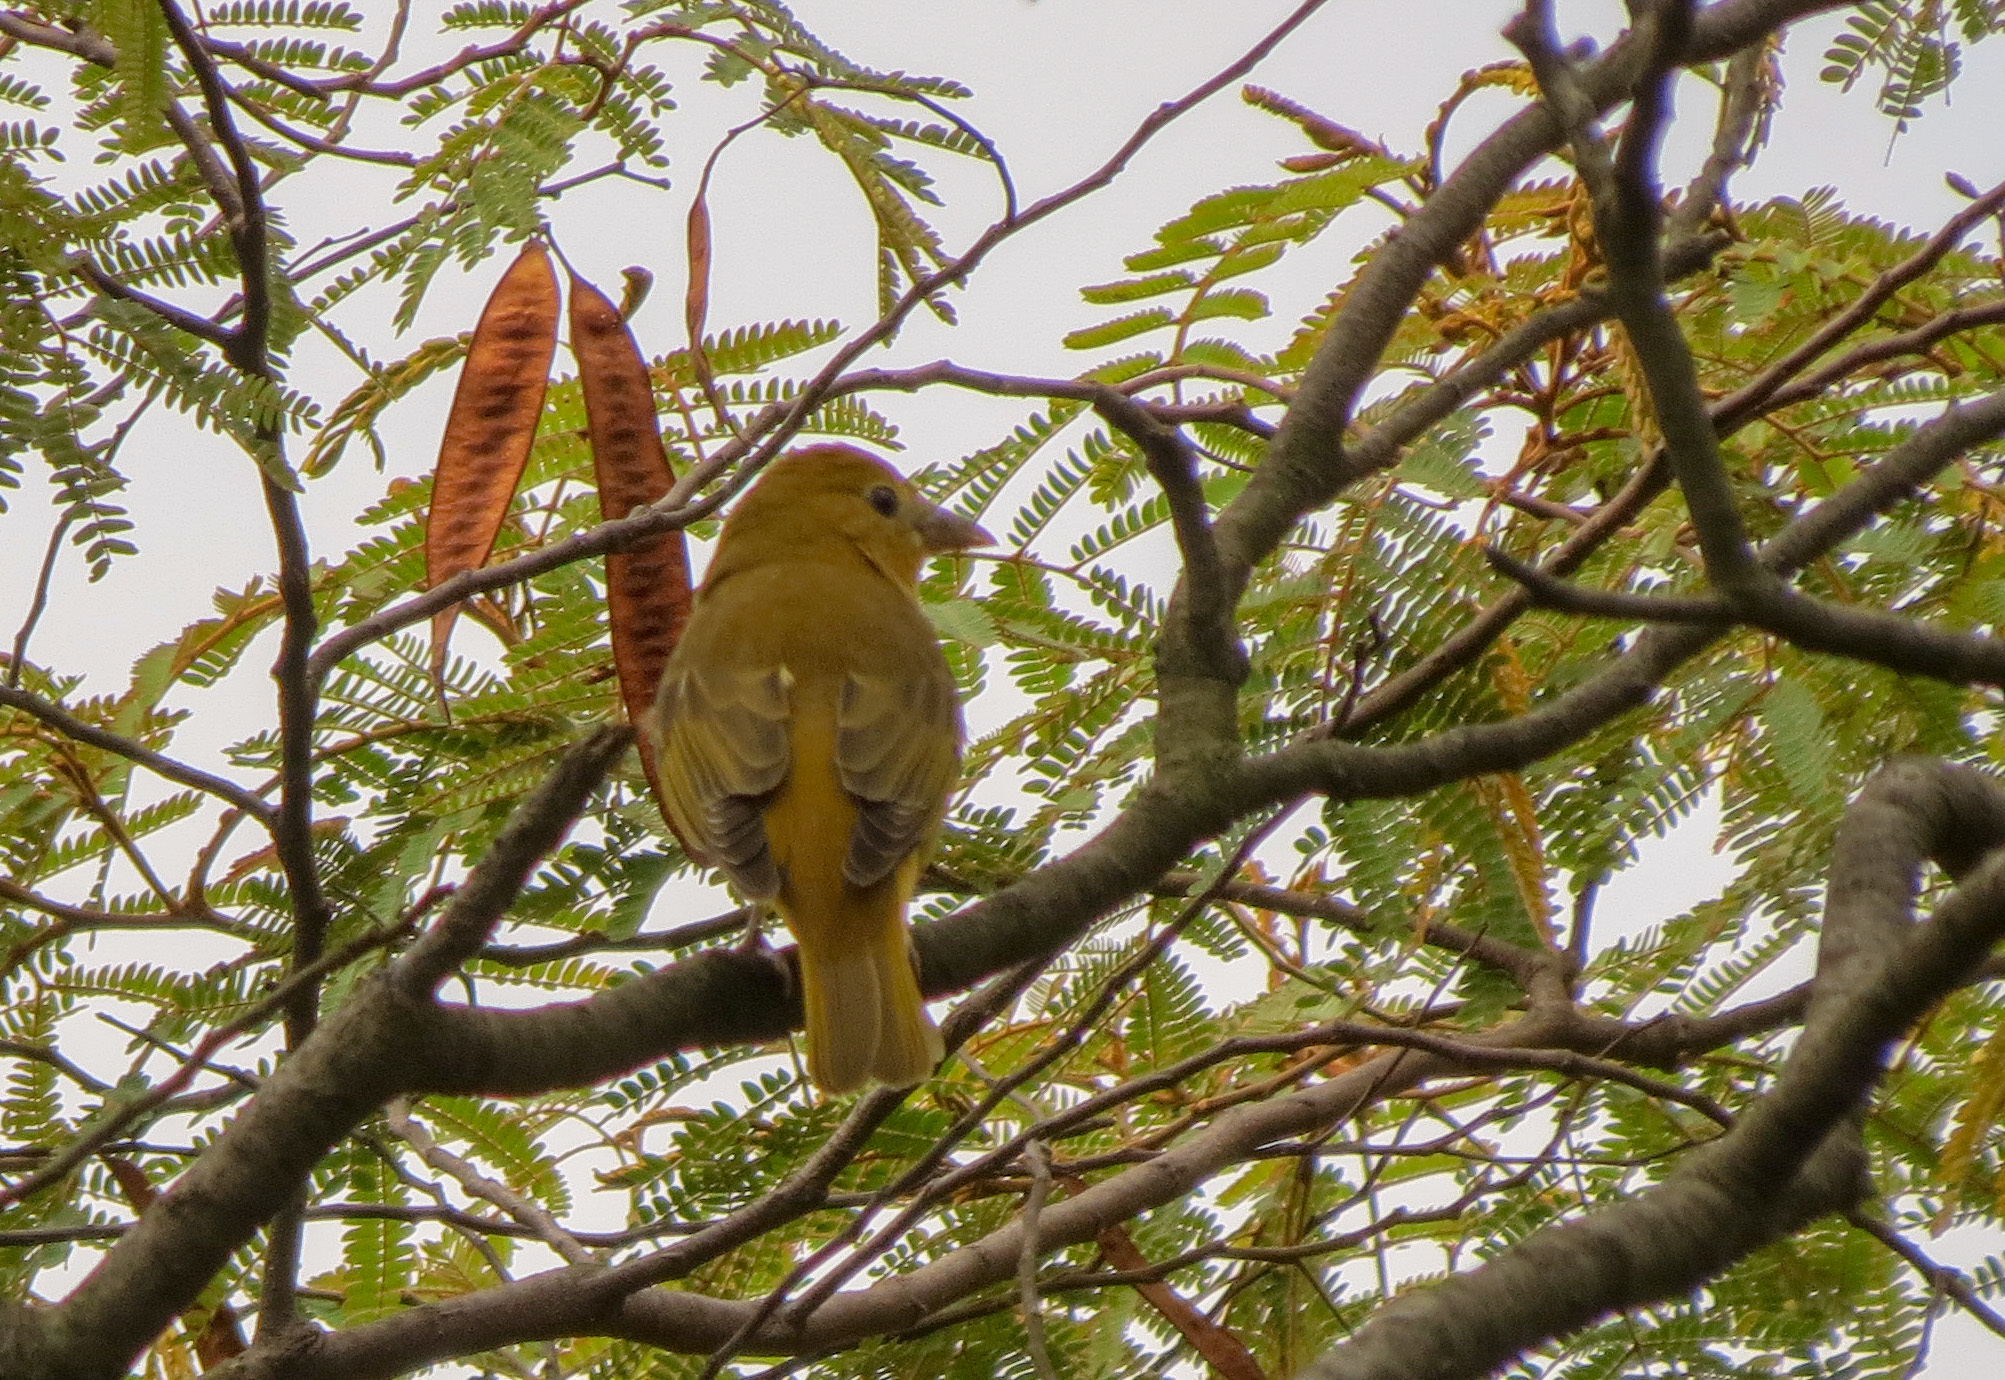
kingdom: Animalia
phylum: Chordata
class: Aves
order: Passeriformes
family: Cardinalidae
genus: Piranga
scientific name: Piranga rubra
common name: Summer tanager
